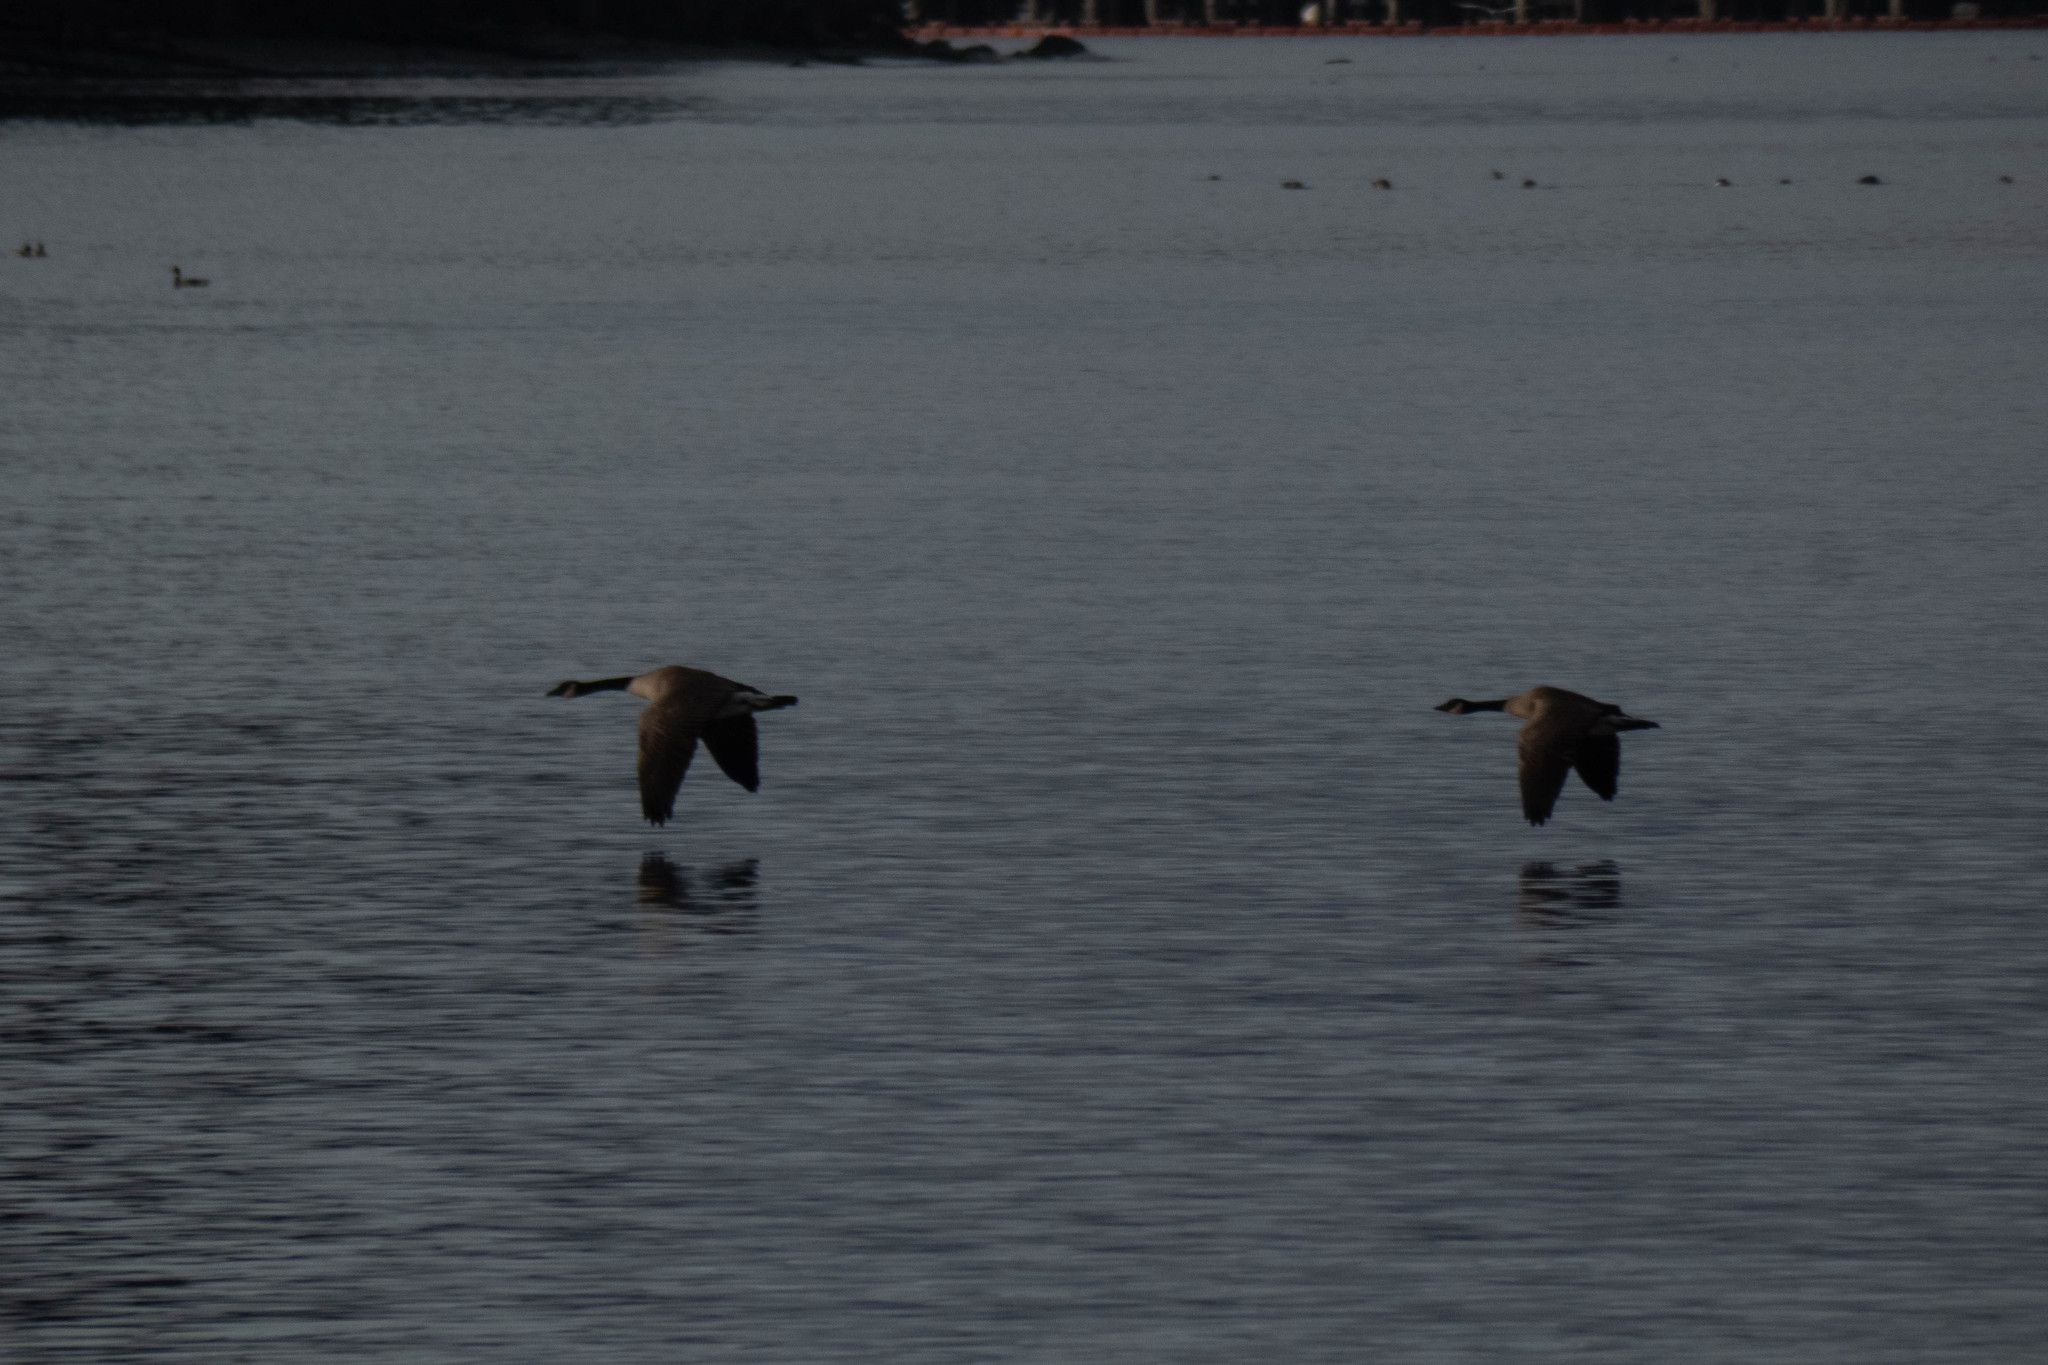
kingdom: Animalia
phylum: Chordata
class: Aves
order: Anseriformes
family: Anatidae
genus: Branta
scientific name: Branta canadensis
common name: Canada goose
